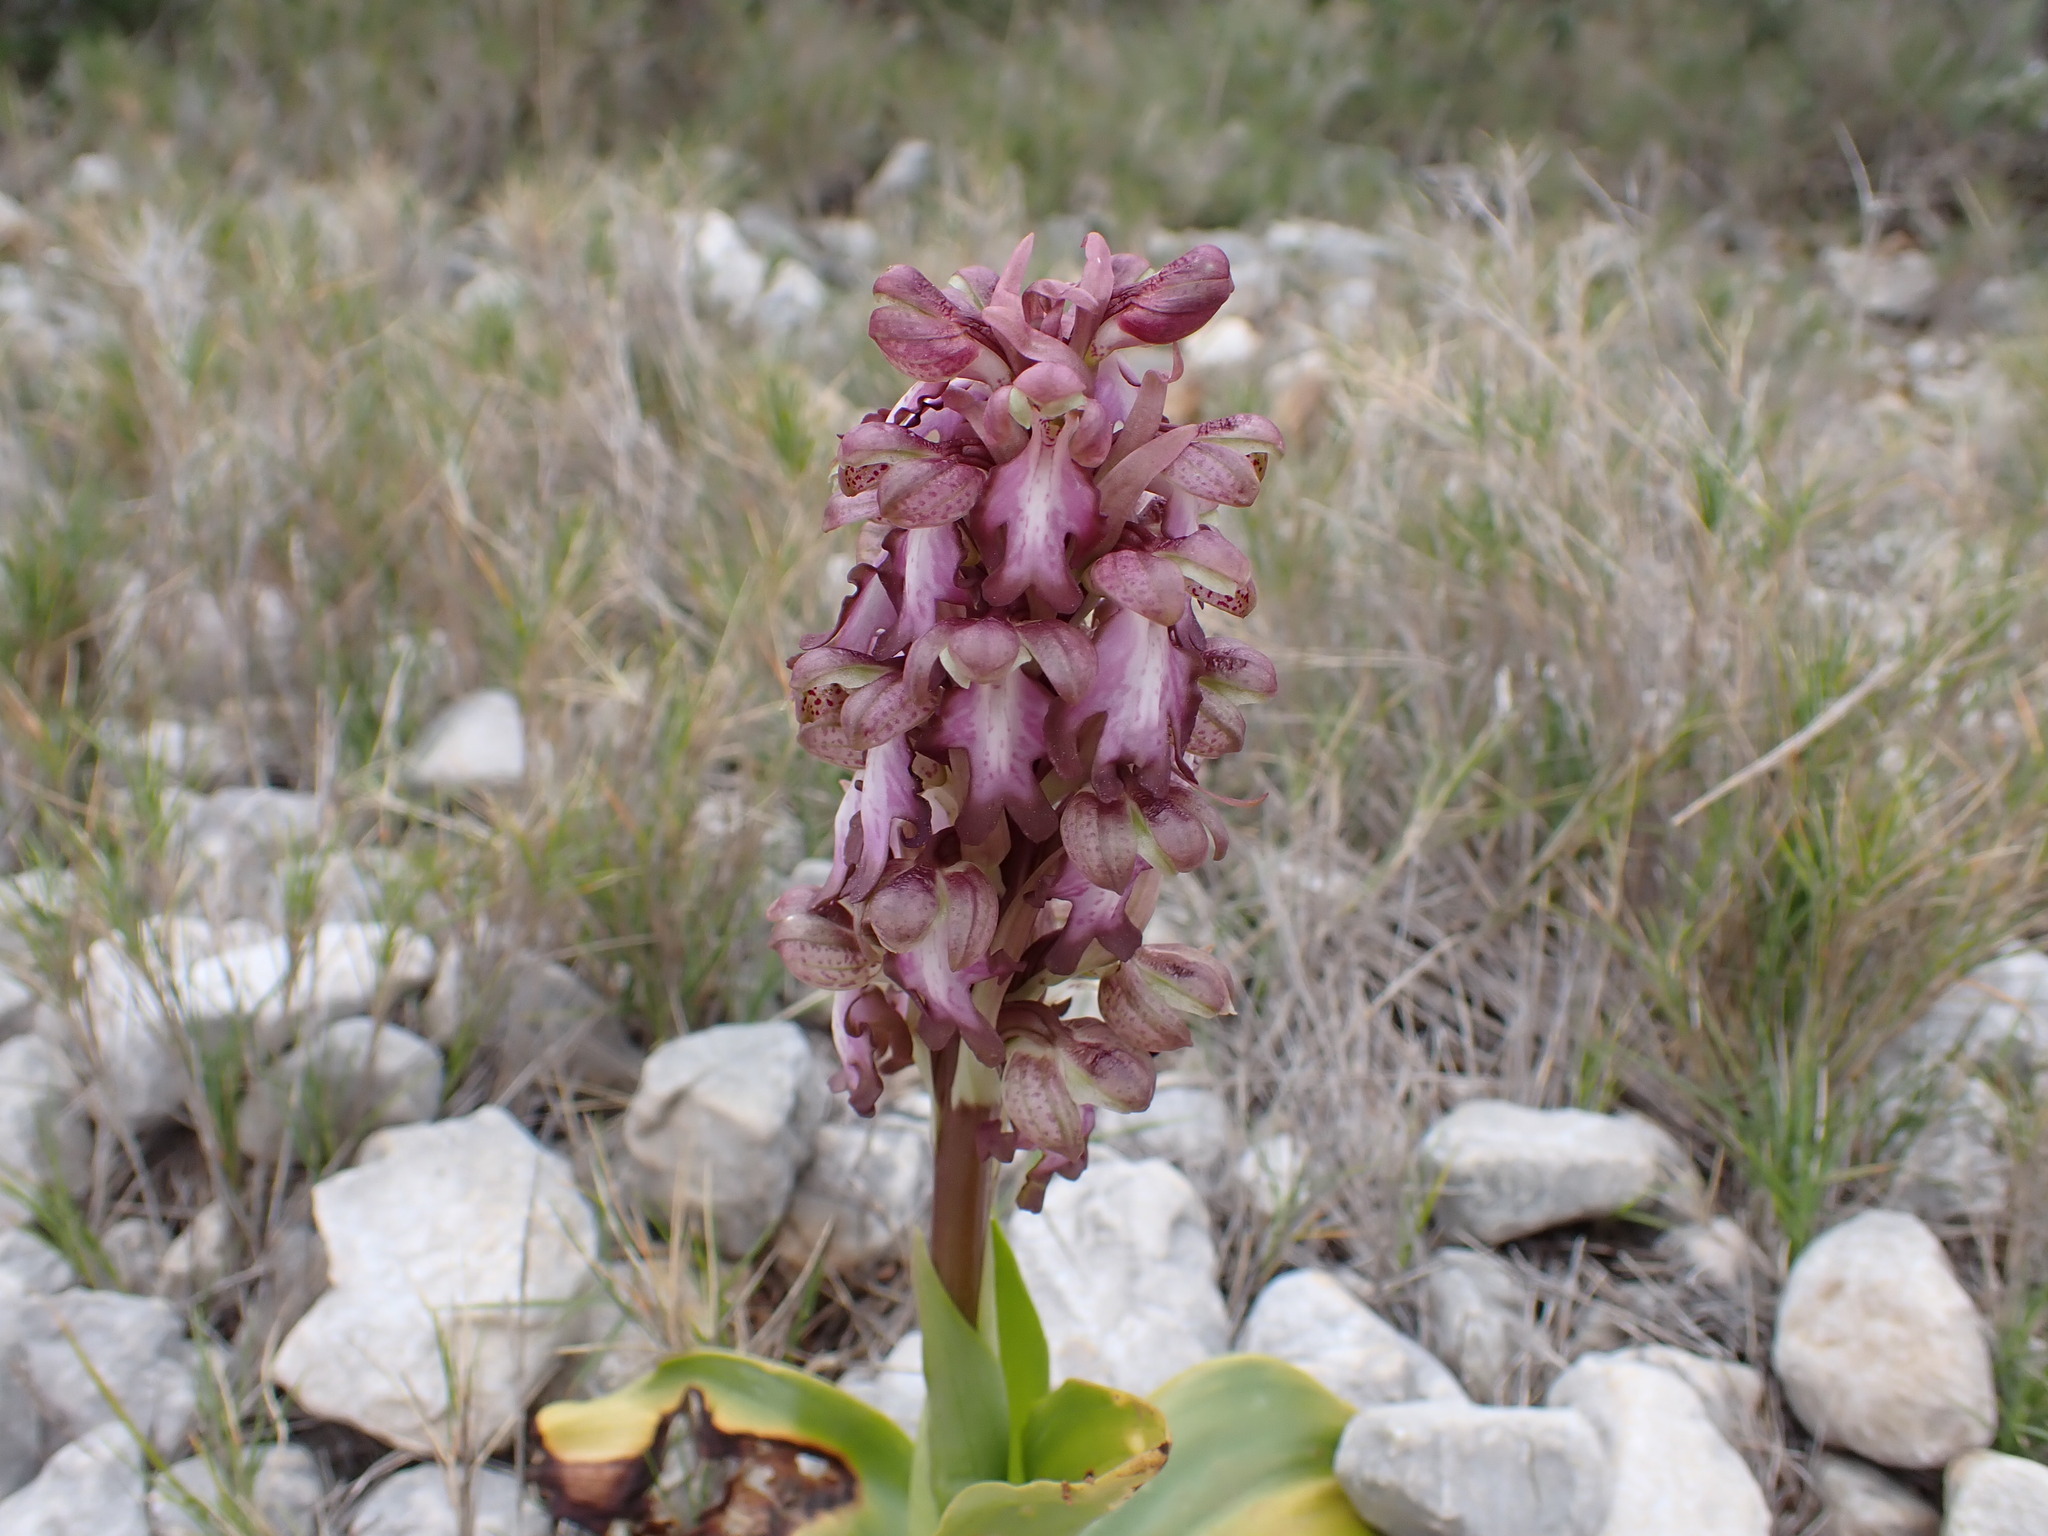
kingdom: Plantae
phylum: Tracheophyta
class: Liliopsida
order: Asparagales
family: Orchidaceae
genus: Himantoglossum
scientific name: Himantoglossum robertianum
